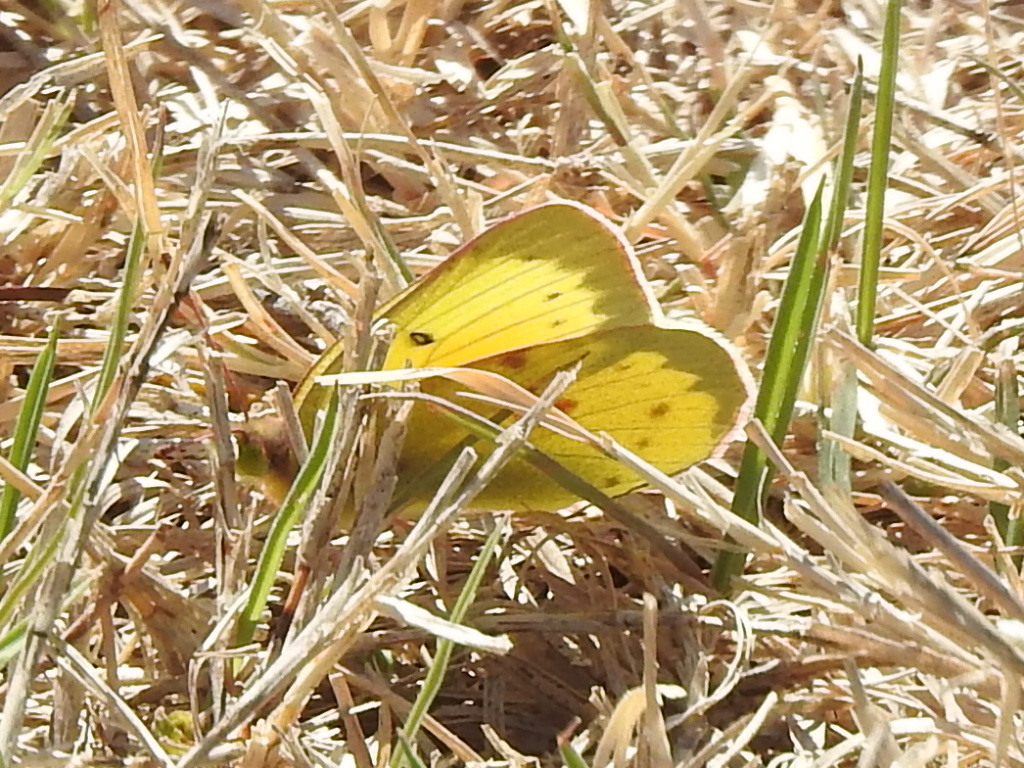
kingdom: Animalia
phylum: Arthropoda
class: Insecta
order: Lepidoptera
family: Pieridae
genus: Colias
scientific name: Colias eurytheme
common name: Alfalfa butterfly
